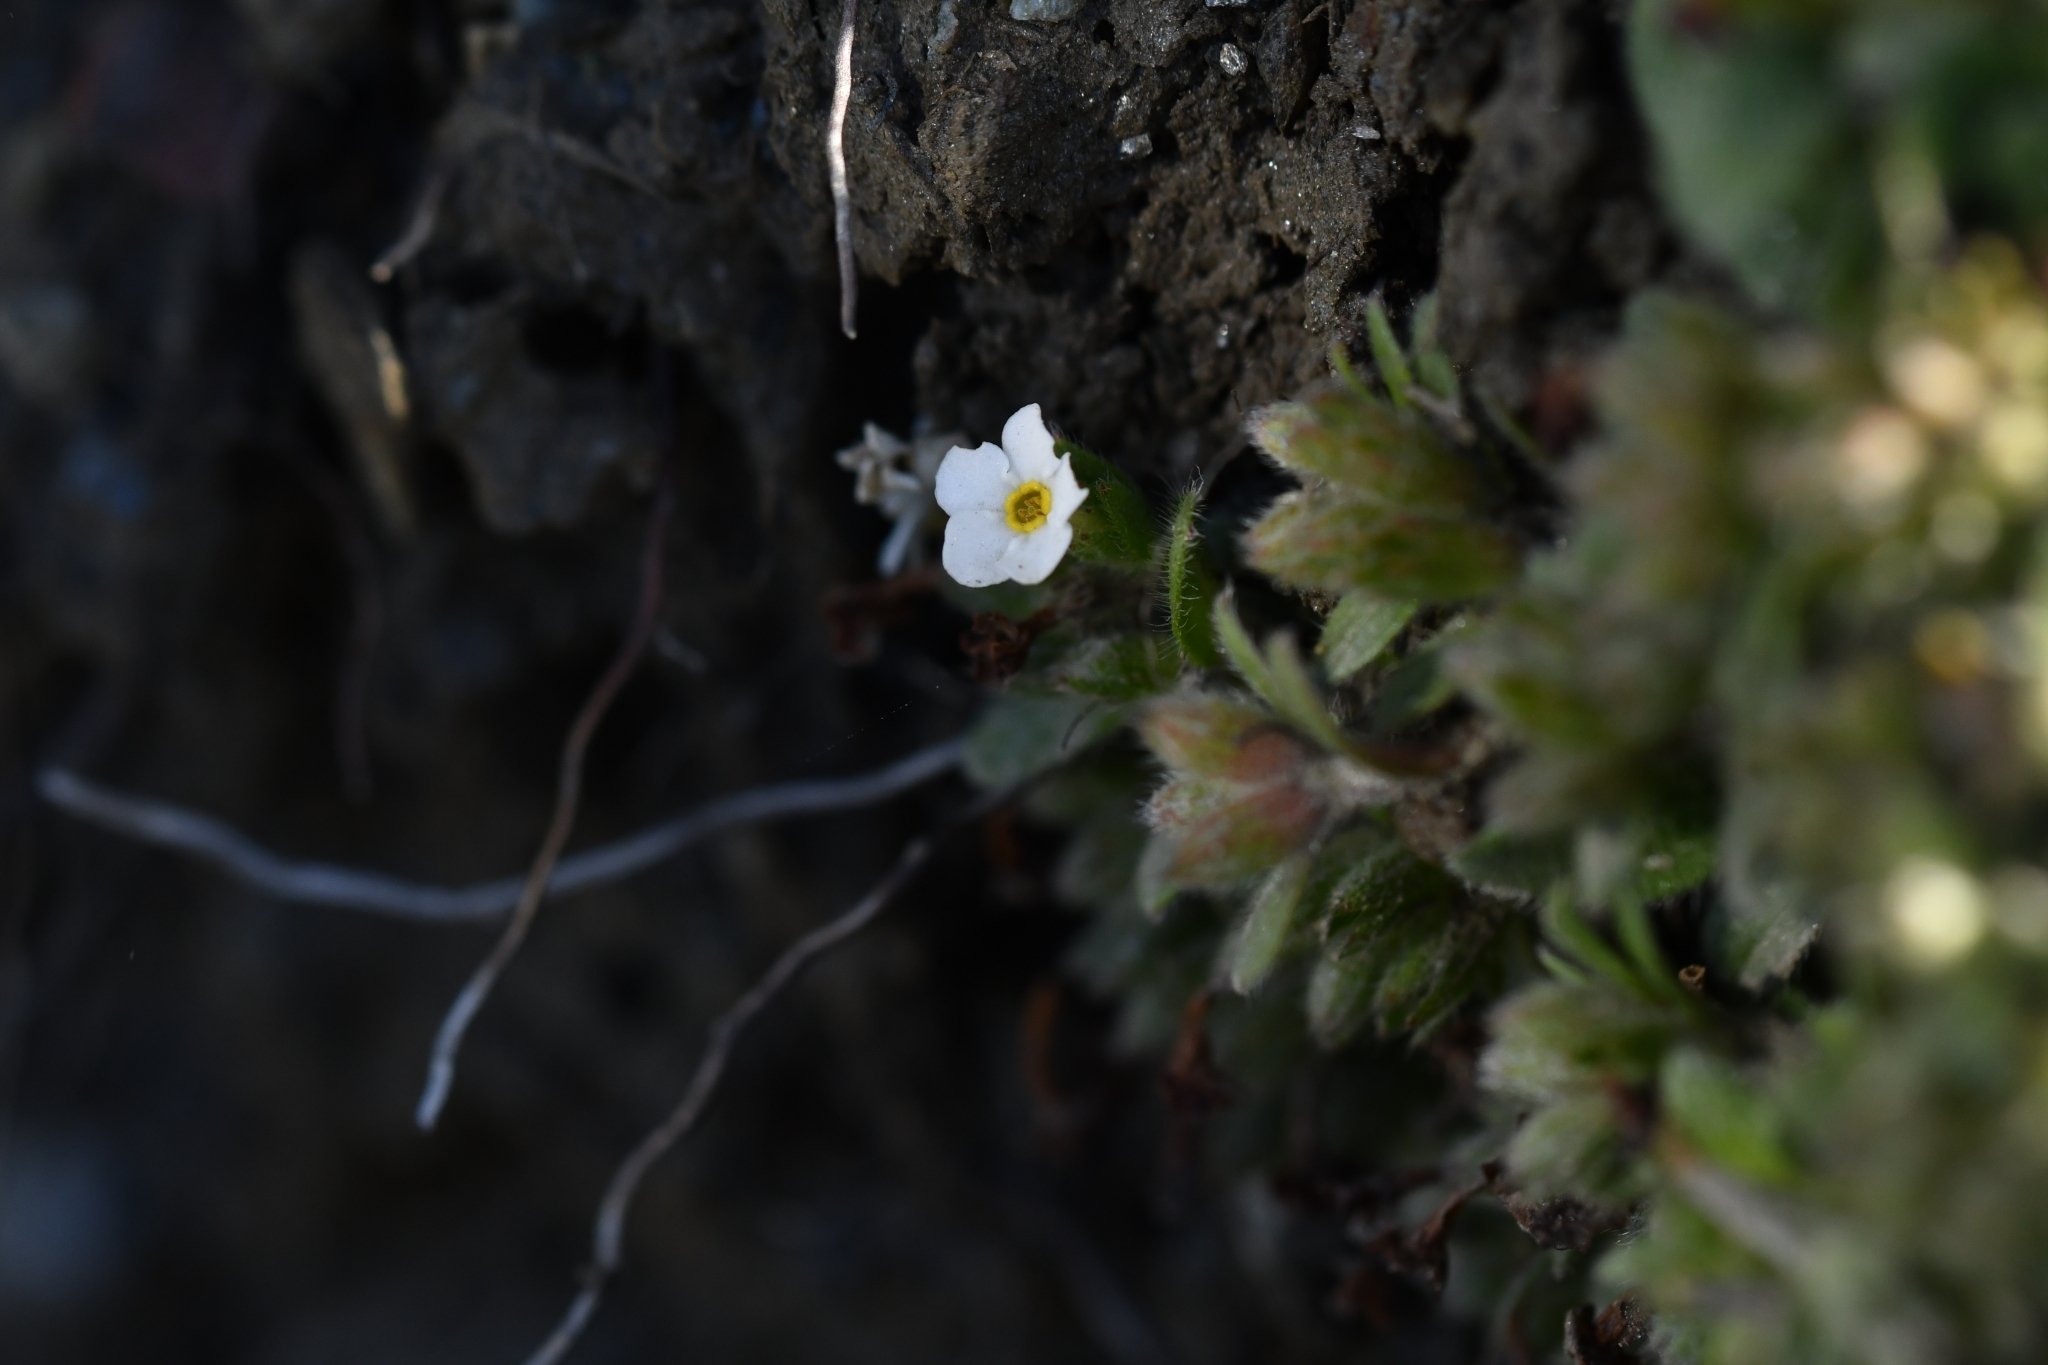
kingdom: Plantae
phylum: Tracheophyta
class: Magnoliopsida
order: Boraginales
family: Boraginaceae
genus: Myosotis
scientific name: Myosotis lyallii
